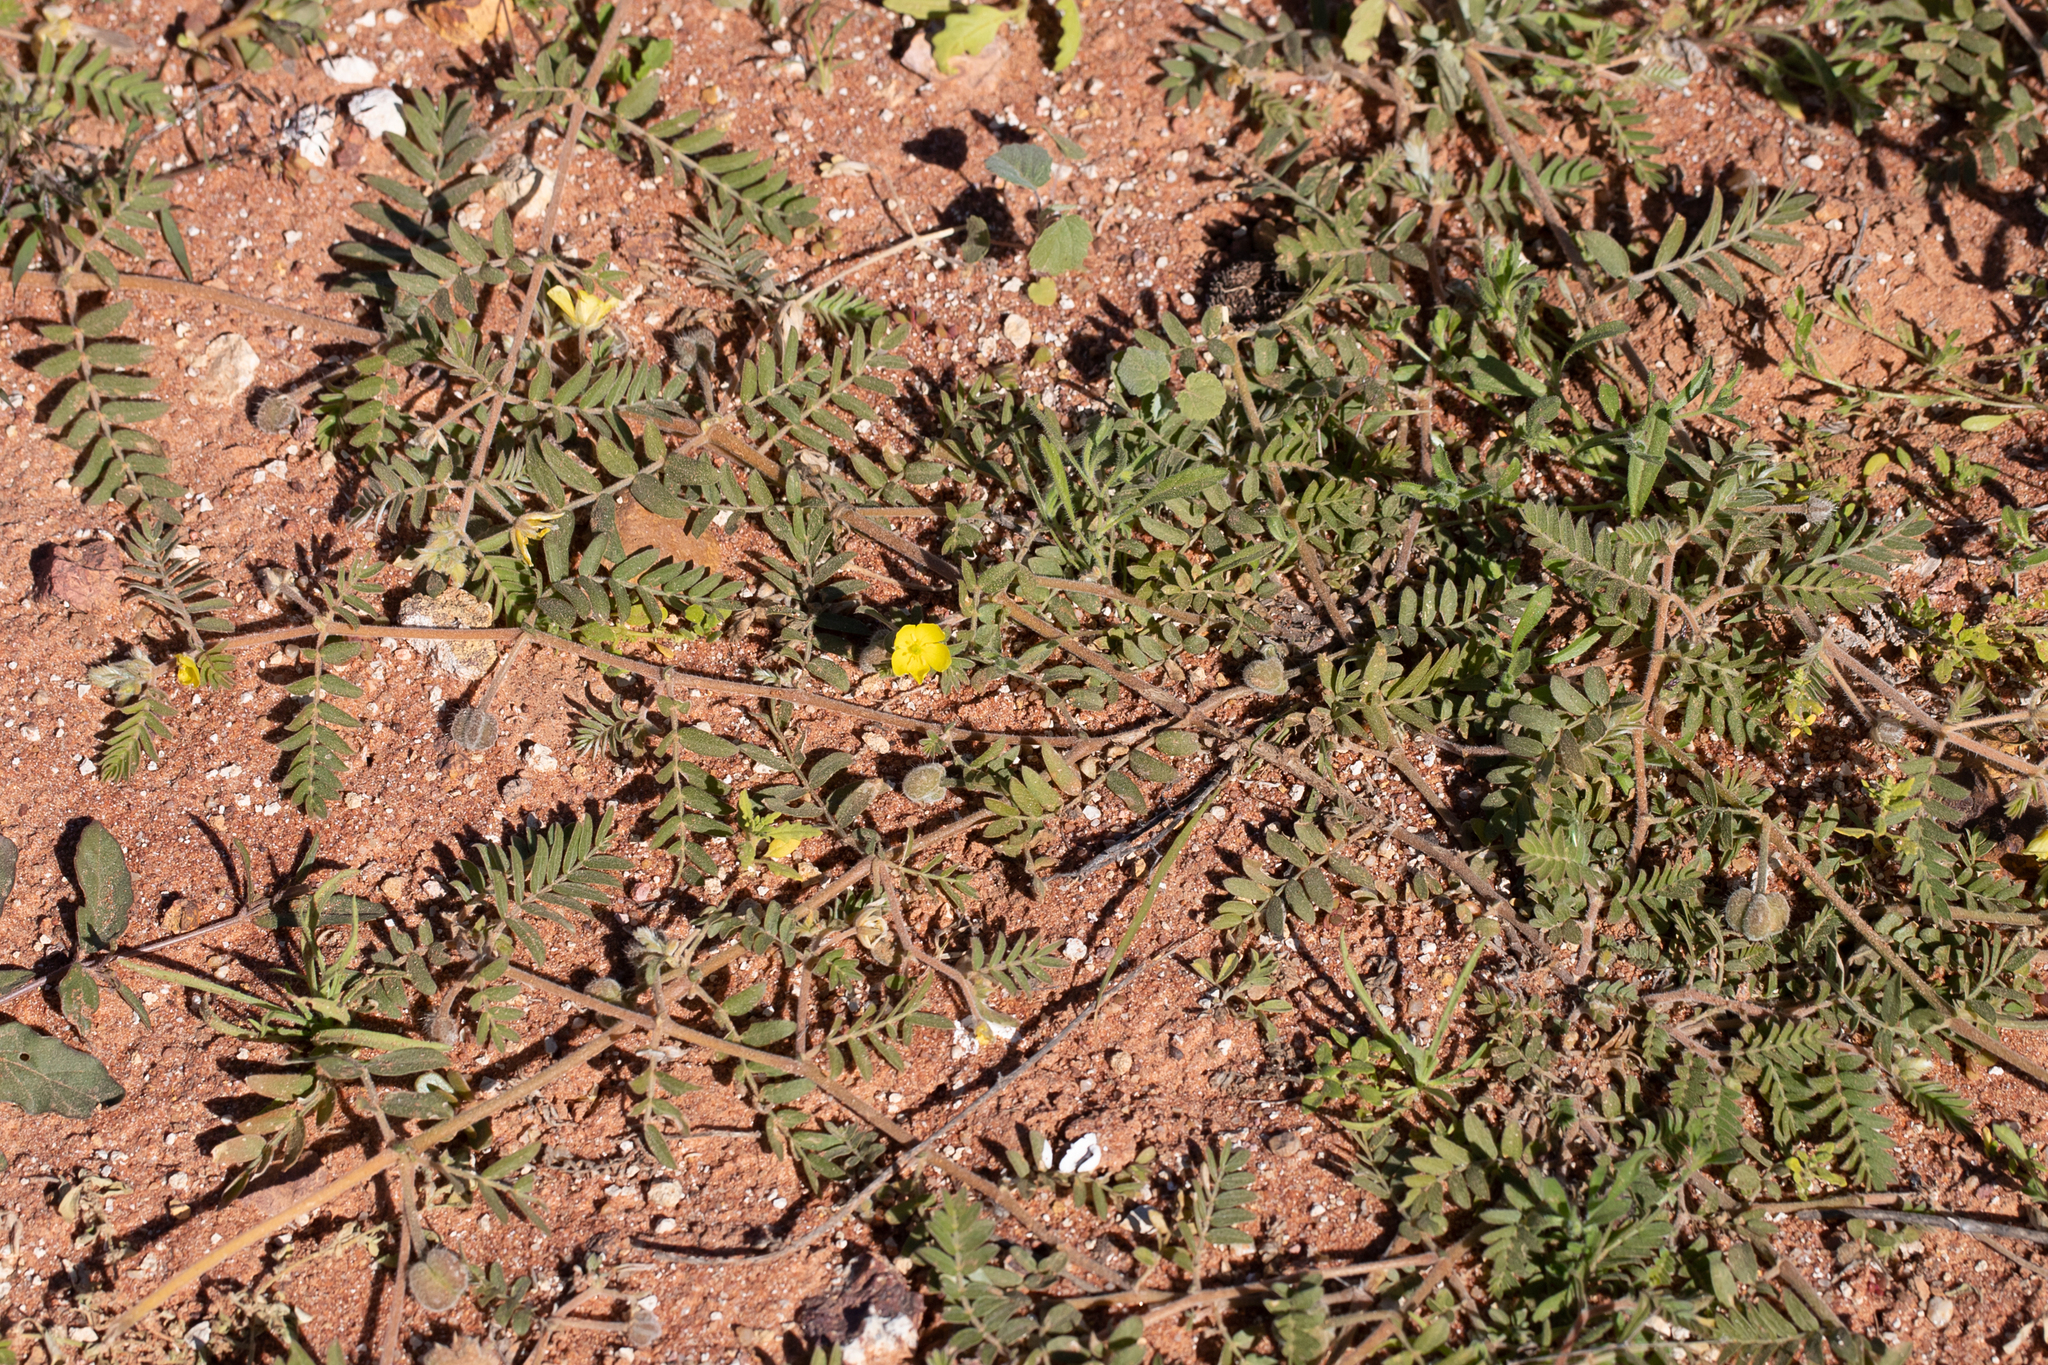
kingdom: Plantae
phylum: Tracheophyta
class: Magnoliopsida
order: Zygophyllales
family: Zygophyllaceae
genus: Tribulus
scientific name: Tribulus eichlerianus
